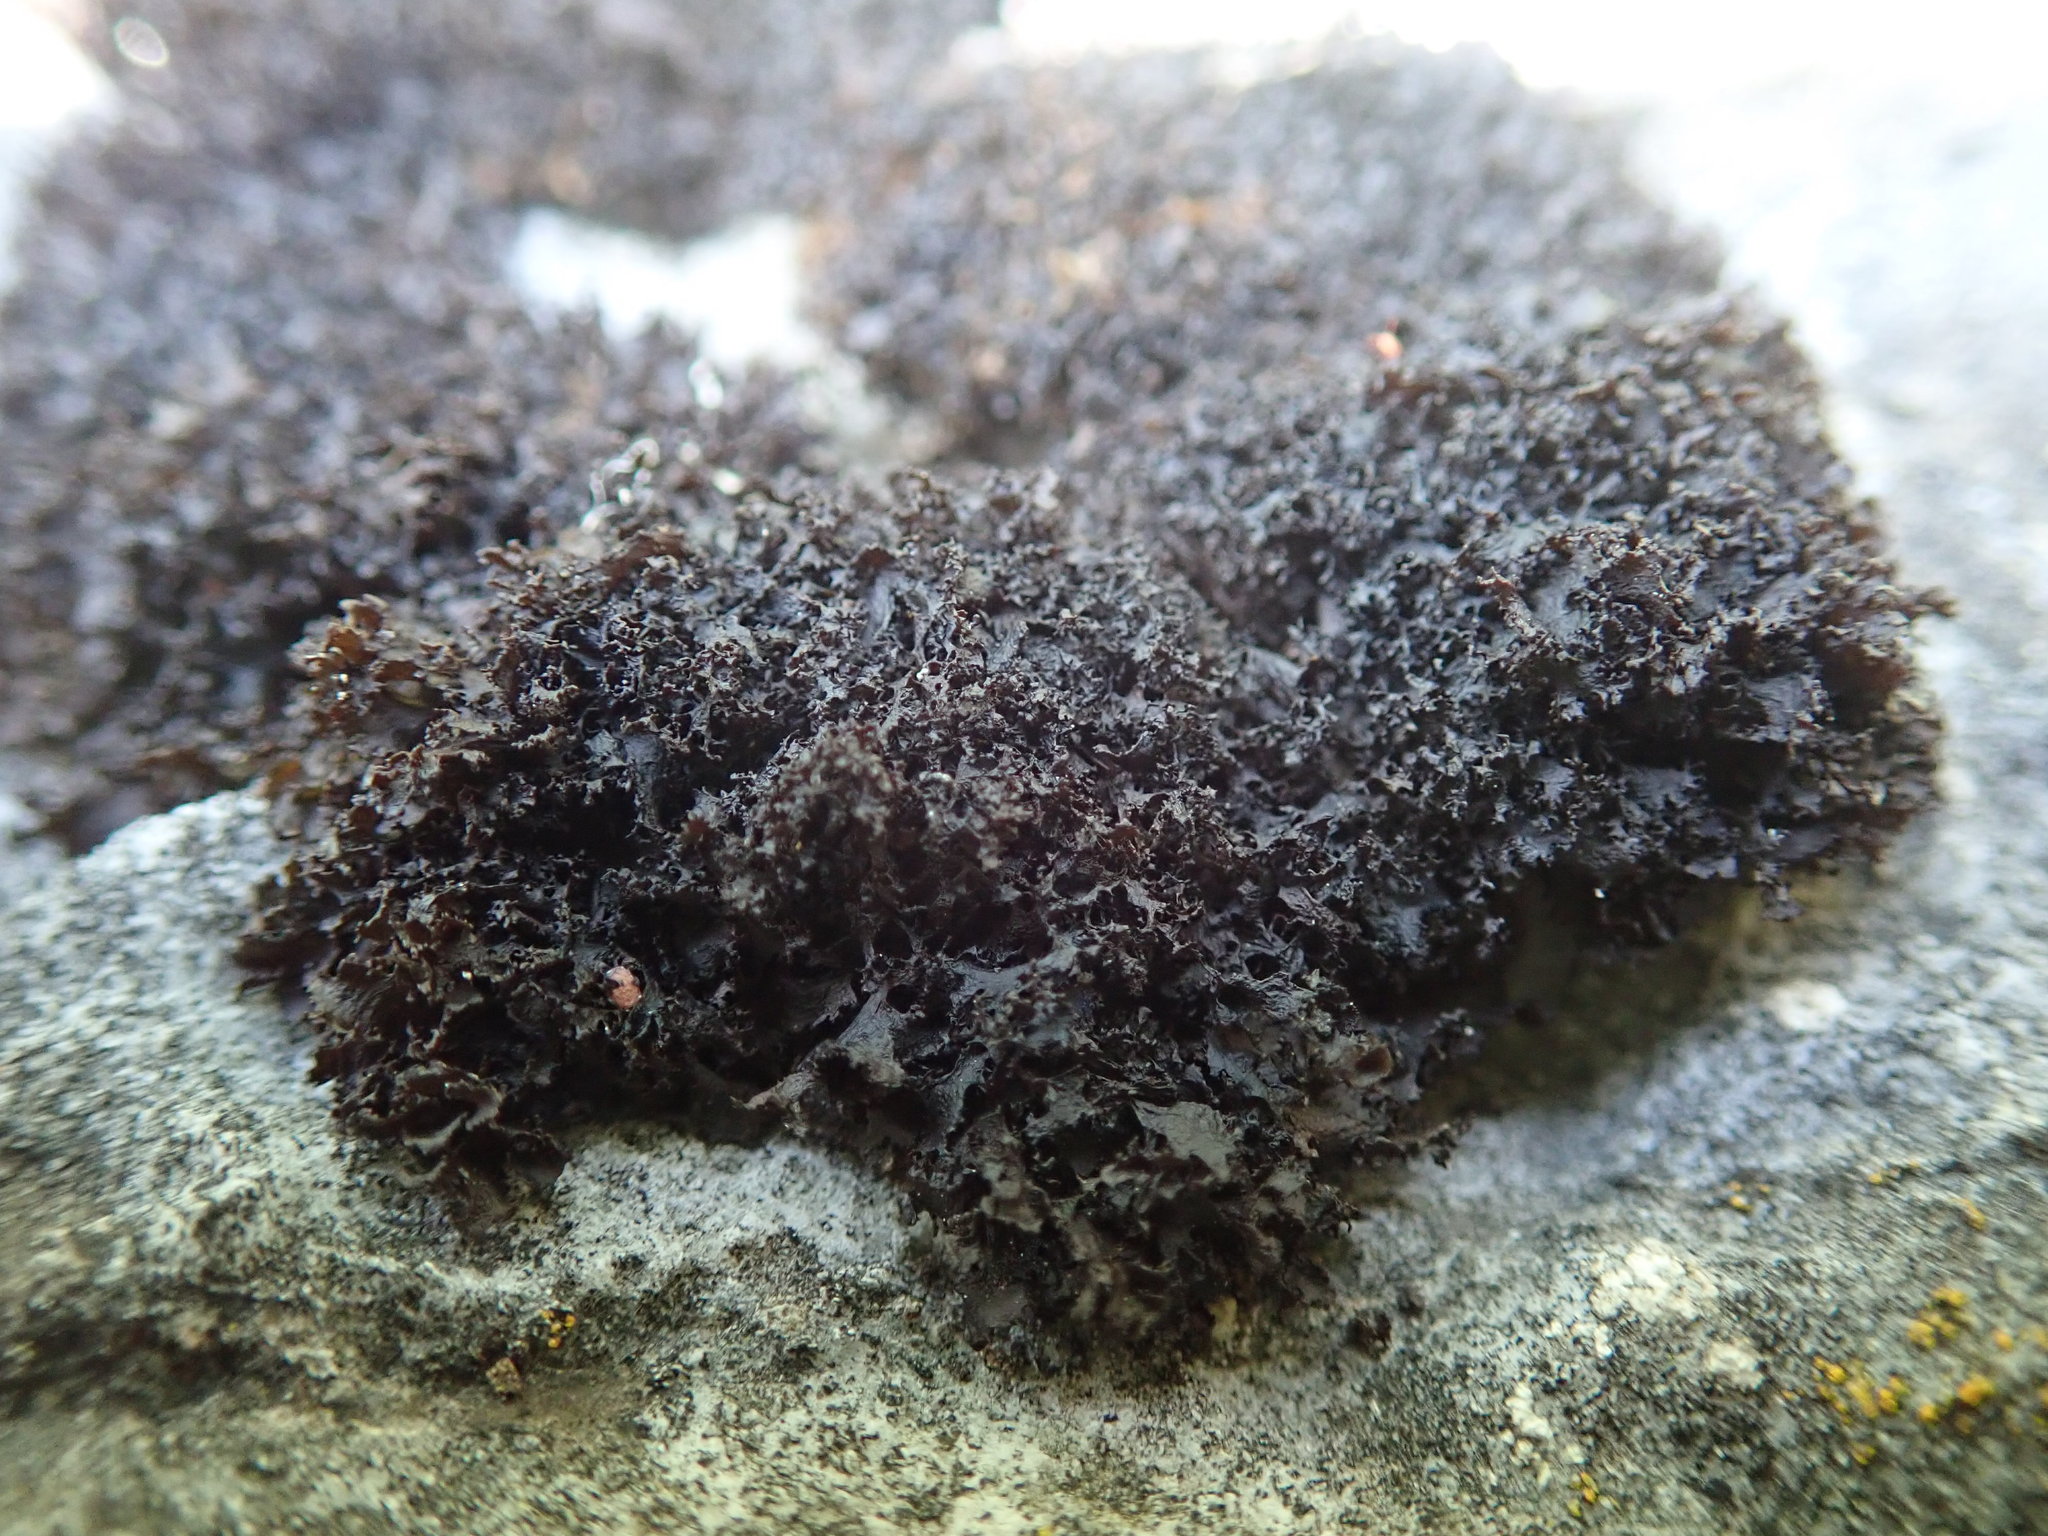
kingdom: Fungi
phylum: Ascomycota
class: Lecanoromycetes
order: Peltigerales
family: Collemataceae
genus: Scytinium
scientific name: Scytinium lichenoides
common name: Tattered jellyskin lichen
